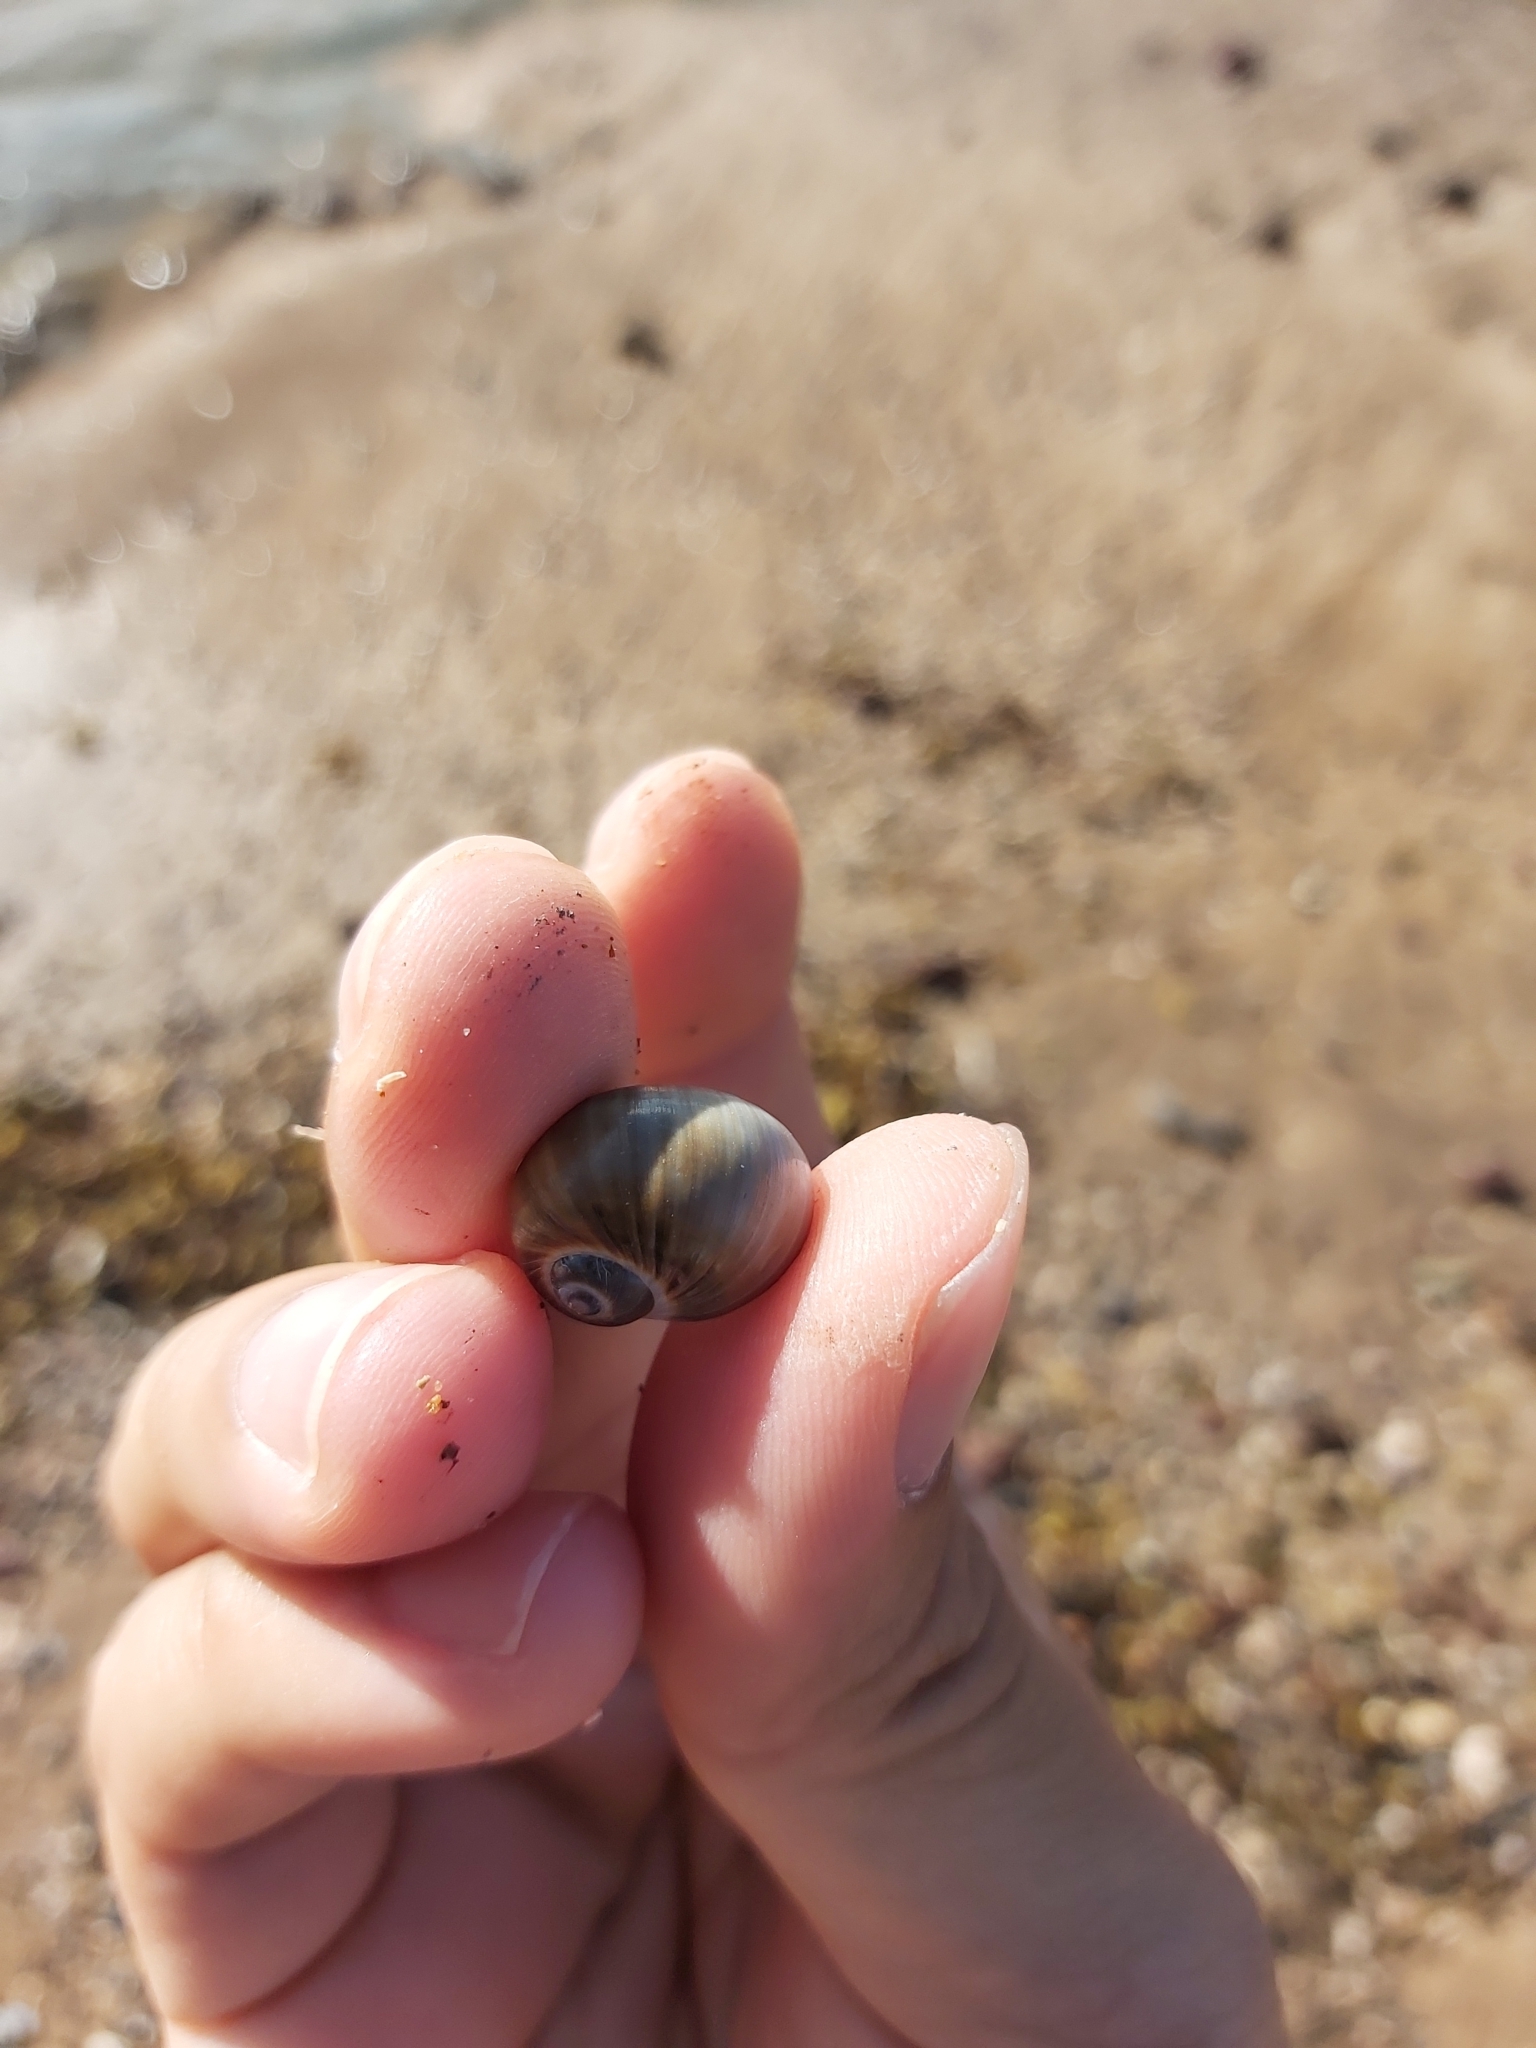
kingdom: Animalia
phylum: Mollusca
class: Gastropoda
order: Littorinimorpha
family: Naticidae
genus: Notocochlis
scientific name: Notocochlis gualteriana
